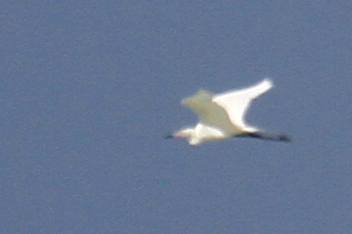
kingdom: Animalia
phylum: Chordata
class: Aves
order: Pelecaniformes
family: Ardeidae
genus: Egretta
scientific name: Egretta rufescens
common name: Reddish egret
